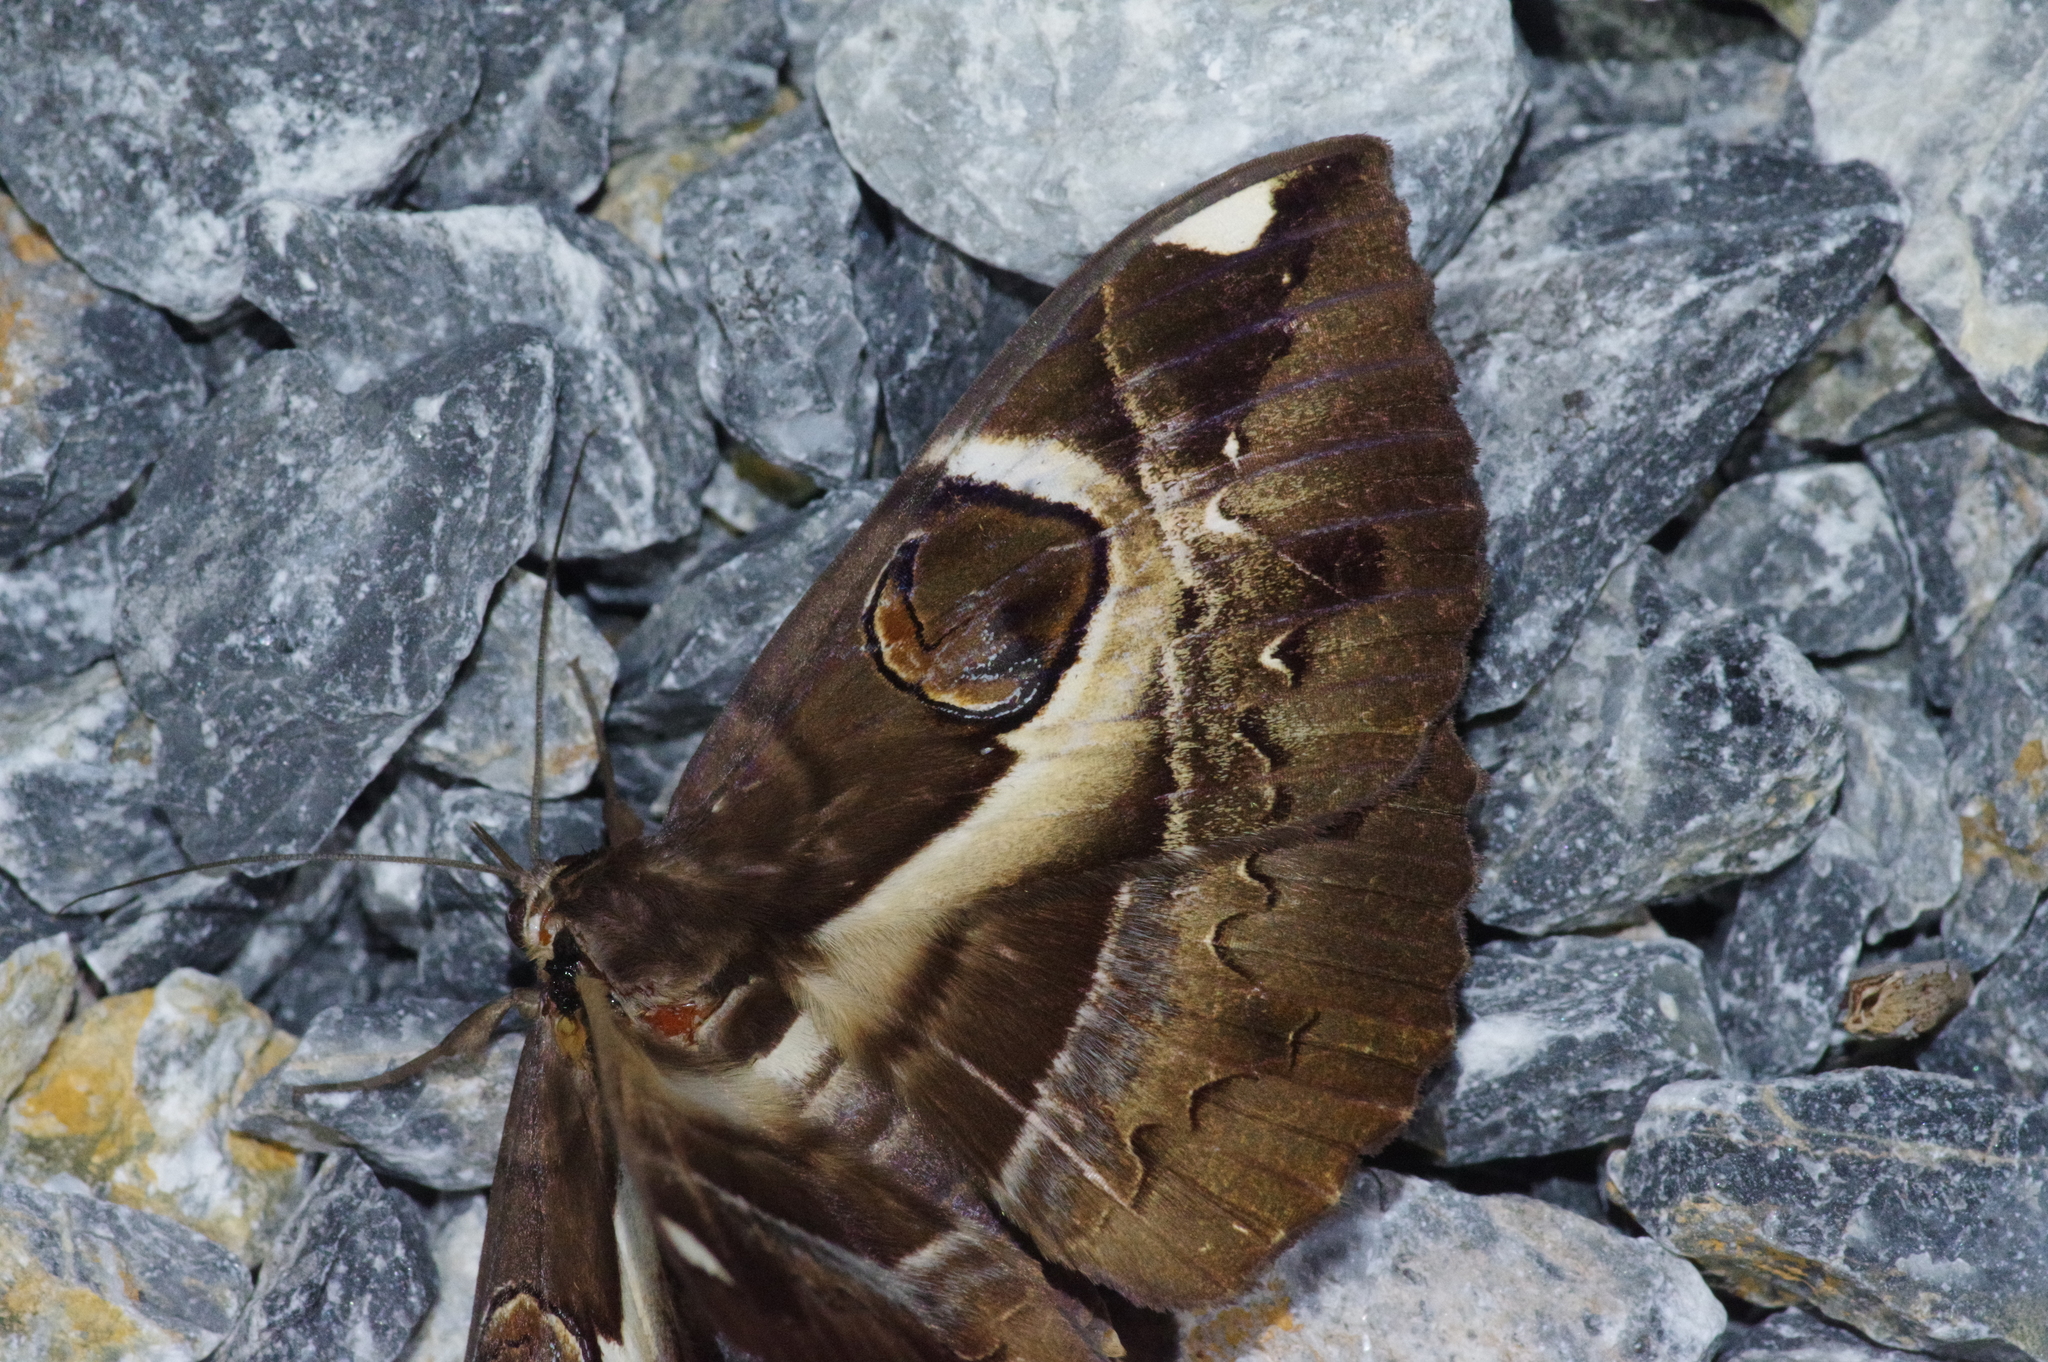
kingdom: Animalia
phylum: Arthropoda
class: Insecta
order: Lepidoptera
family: Erebidae
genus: Erebus
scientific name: Erebus ephesperis
